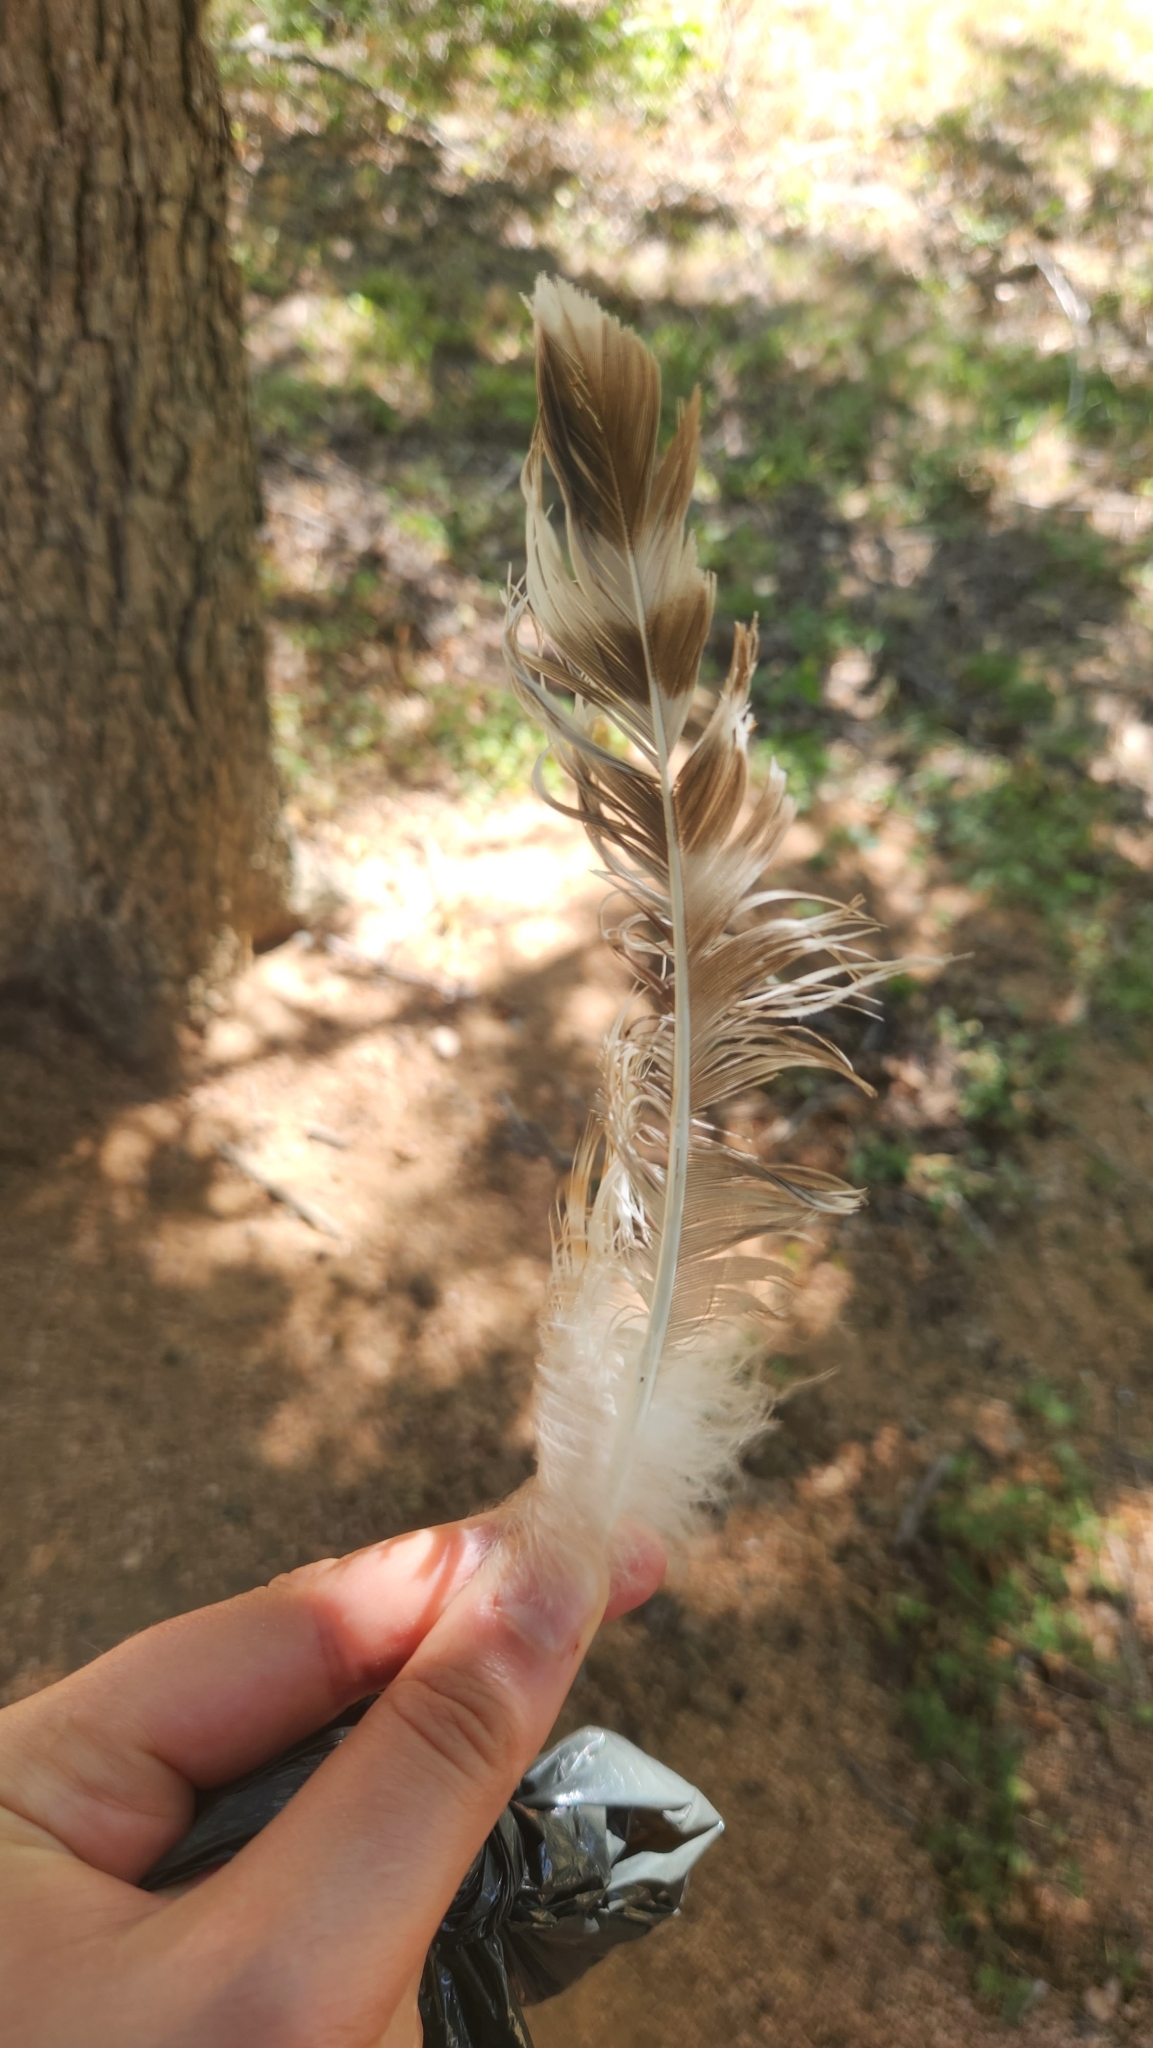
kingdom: Animalia
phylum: Chordata
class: Aves
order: Accipitriformes
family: Accipitridae
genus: Buteo
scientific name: Buteo lineatus
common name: Red-shouldered hawk
